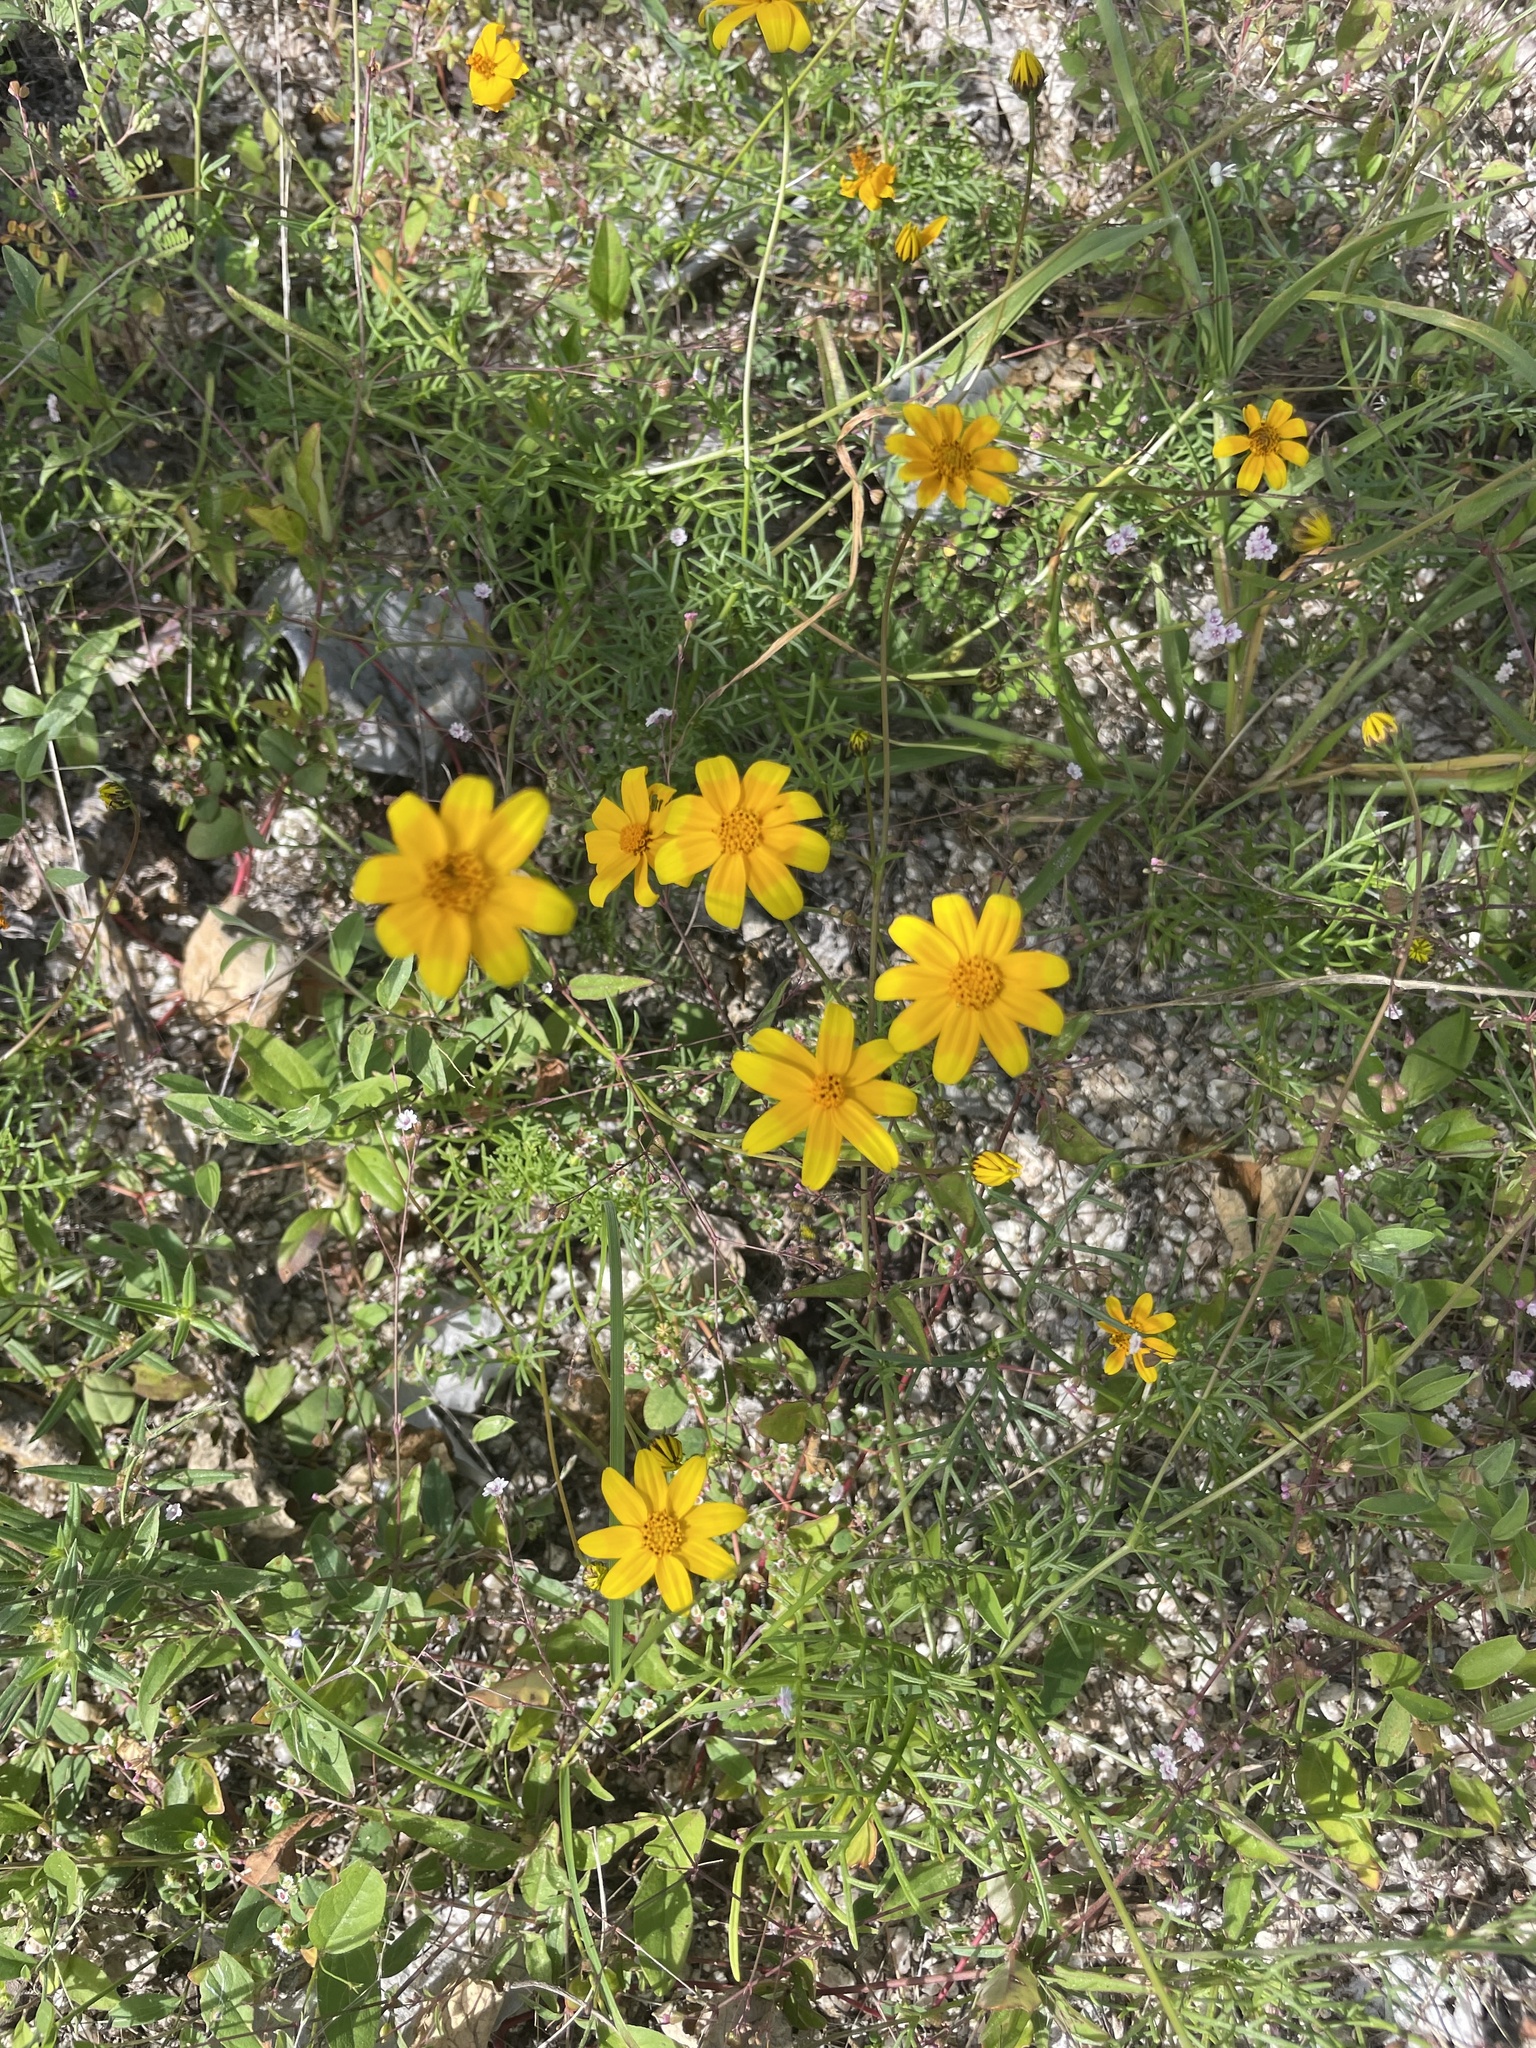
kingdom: Plantae
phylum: Tracheophyta
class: Magnoliopsida
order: Asterales
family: Asteraceae
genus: Bidens
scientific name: Bidens xanti
